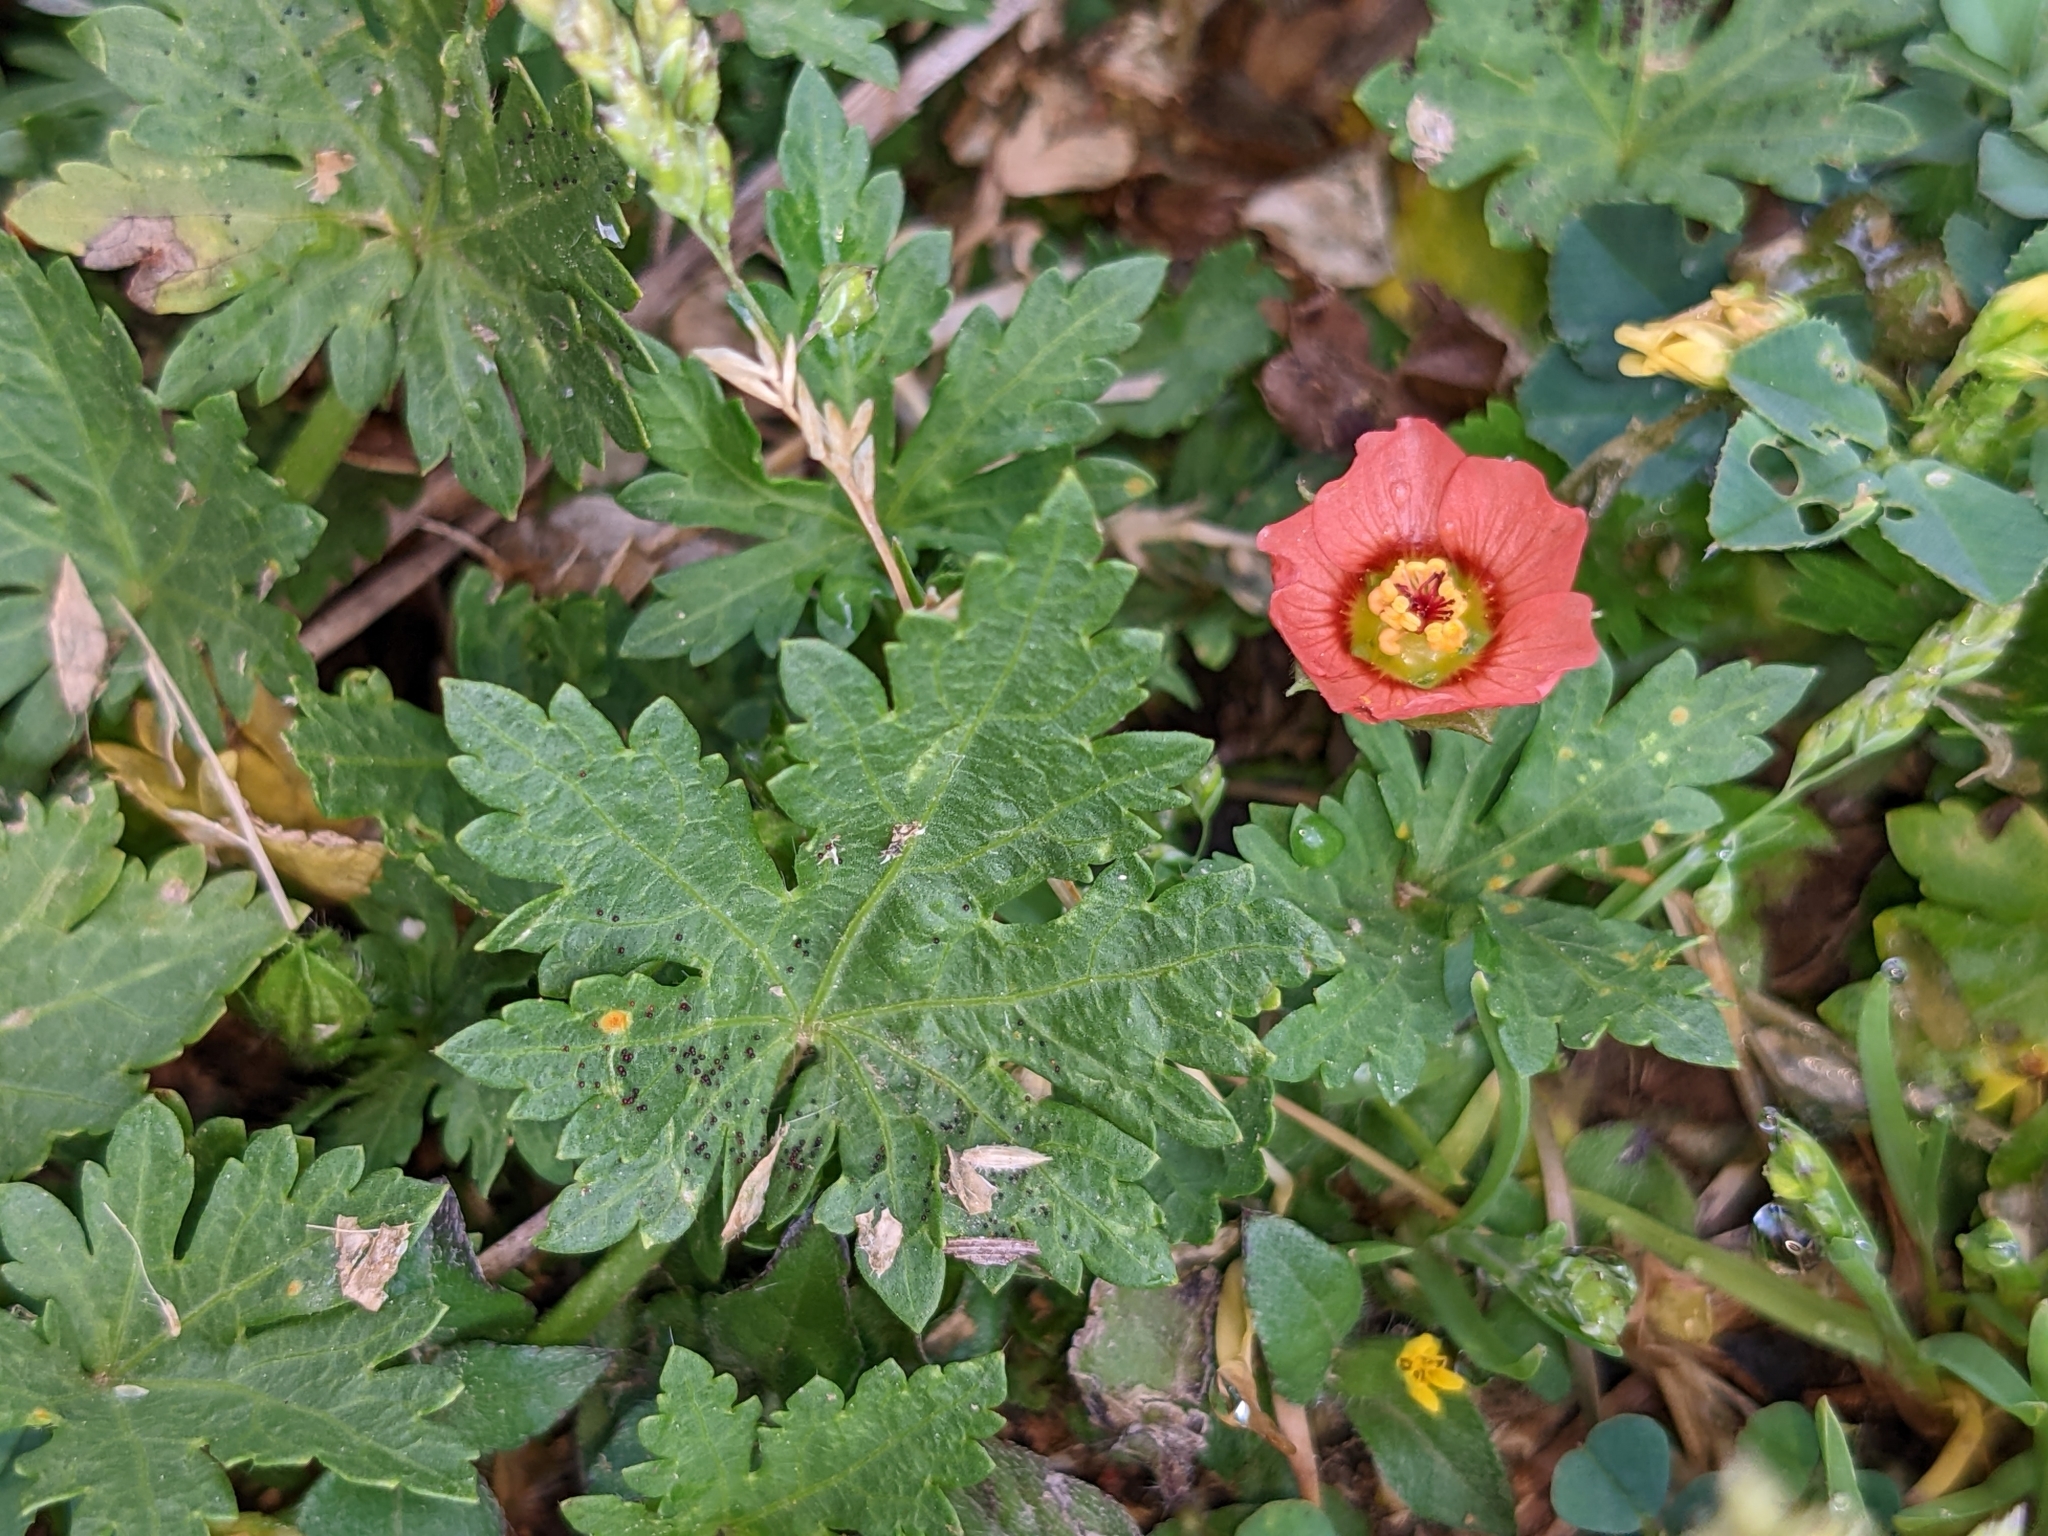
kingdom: Plantae
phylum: Tracheophyta
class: Magnoliopsida
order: Malvales
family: Malvaceae
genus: Modiola
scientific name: Modiola caroliniana
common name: Carolina bristlemallow
